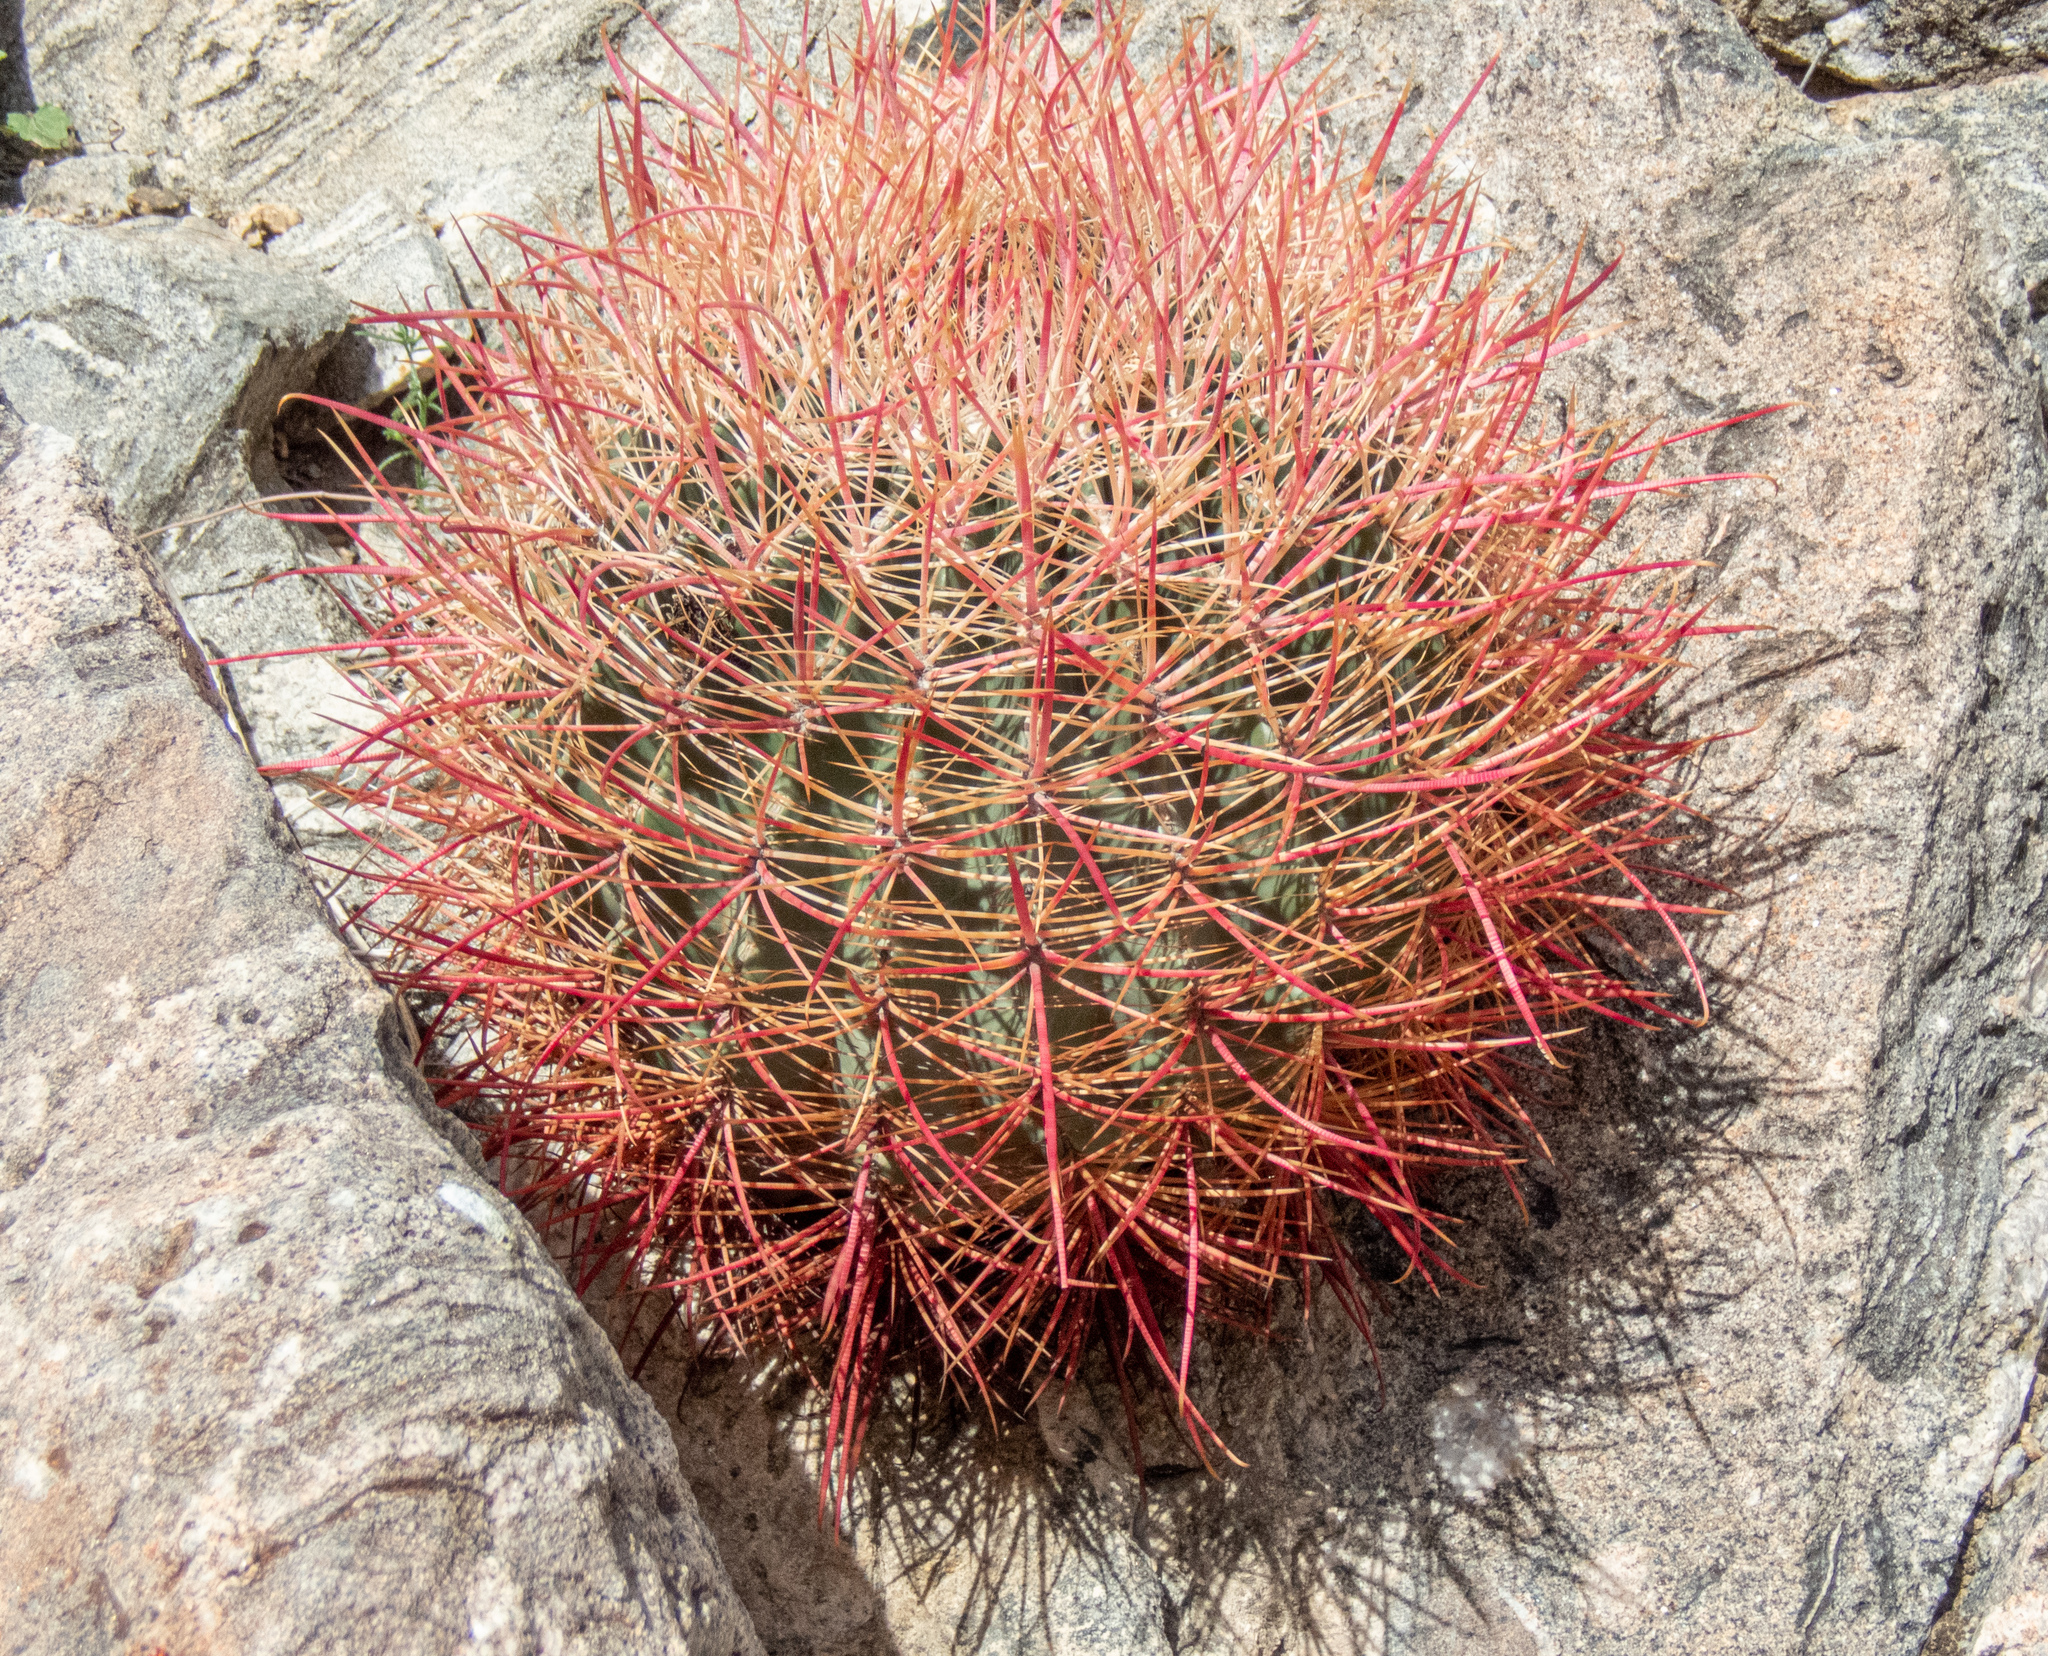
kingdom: Plantae
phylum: Tracheophyta
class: Magnoliopsida
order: Caryophyllales
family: Cactaceae
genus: Ferocactus
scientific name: Ferocactus cylindraceus
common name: California barrel cactus
